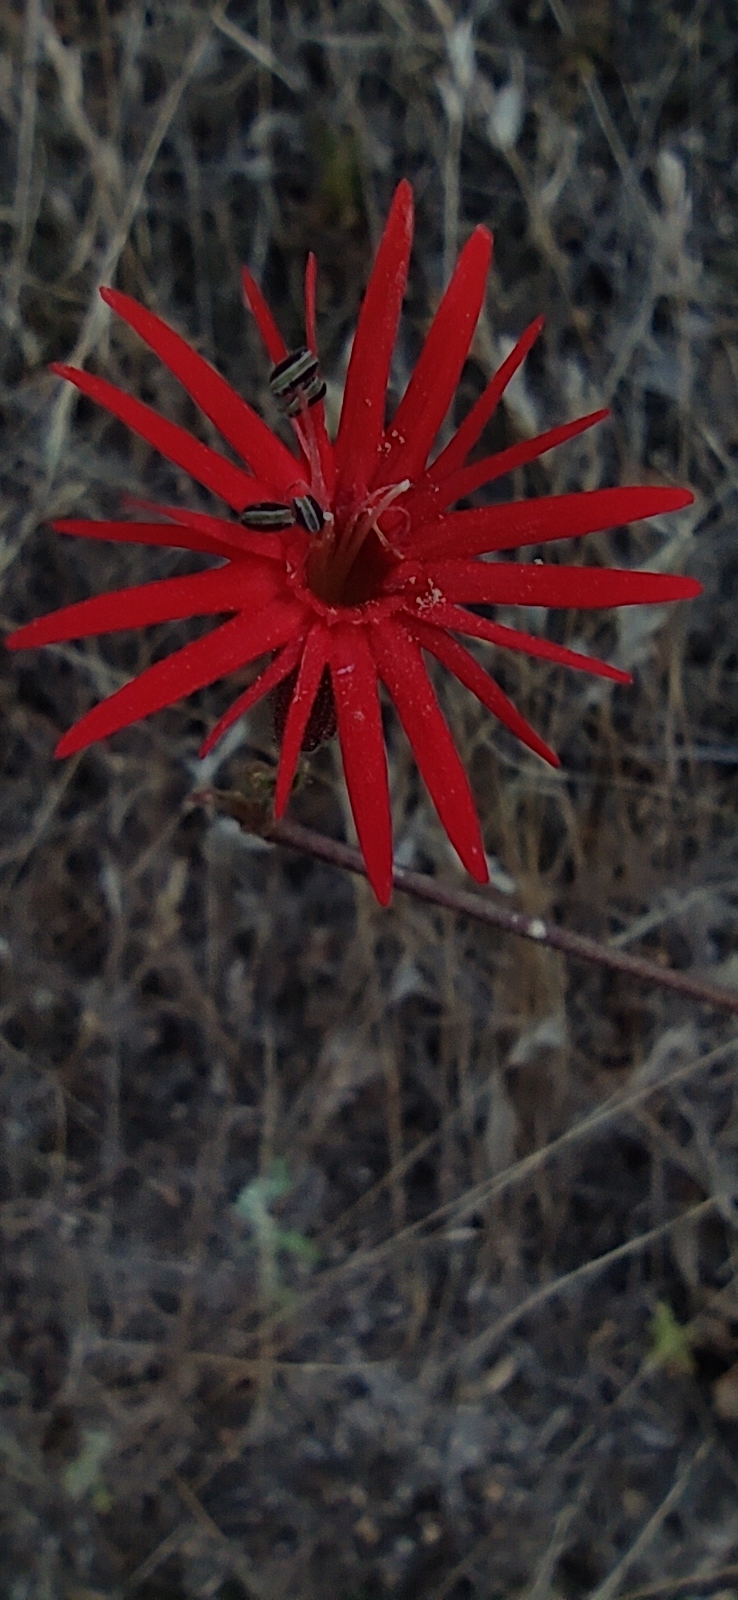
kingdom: Plantae
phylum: Tracheophyta
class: Magnoliopsida
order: Caryophyllales
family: Caryophyllaceae
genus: Silene
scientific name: Silene laciniata
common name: Indian-pink
